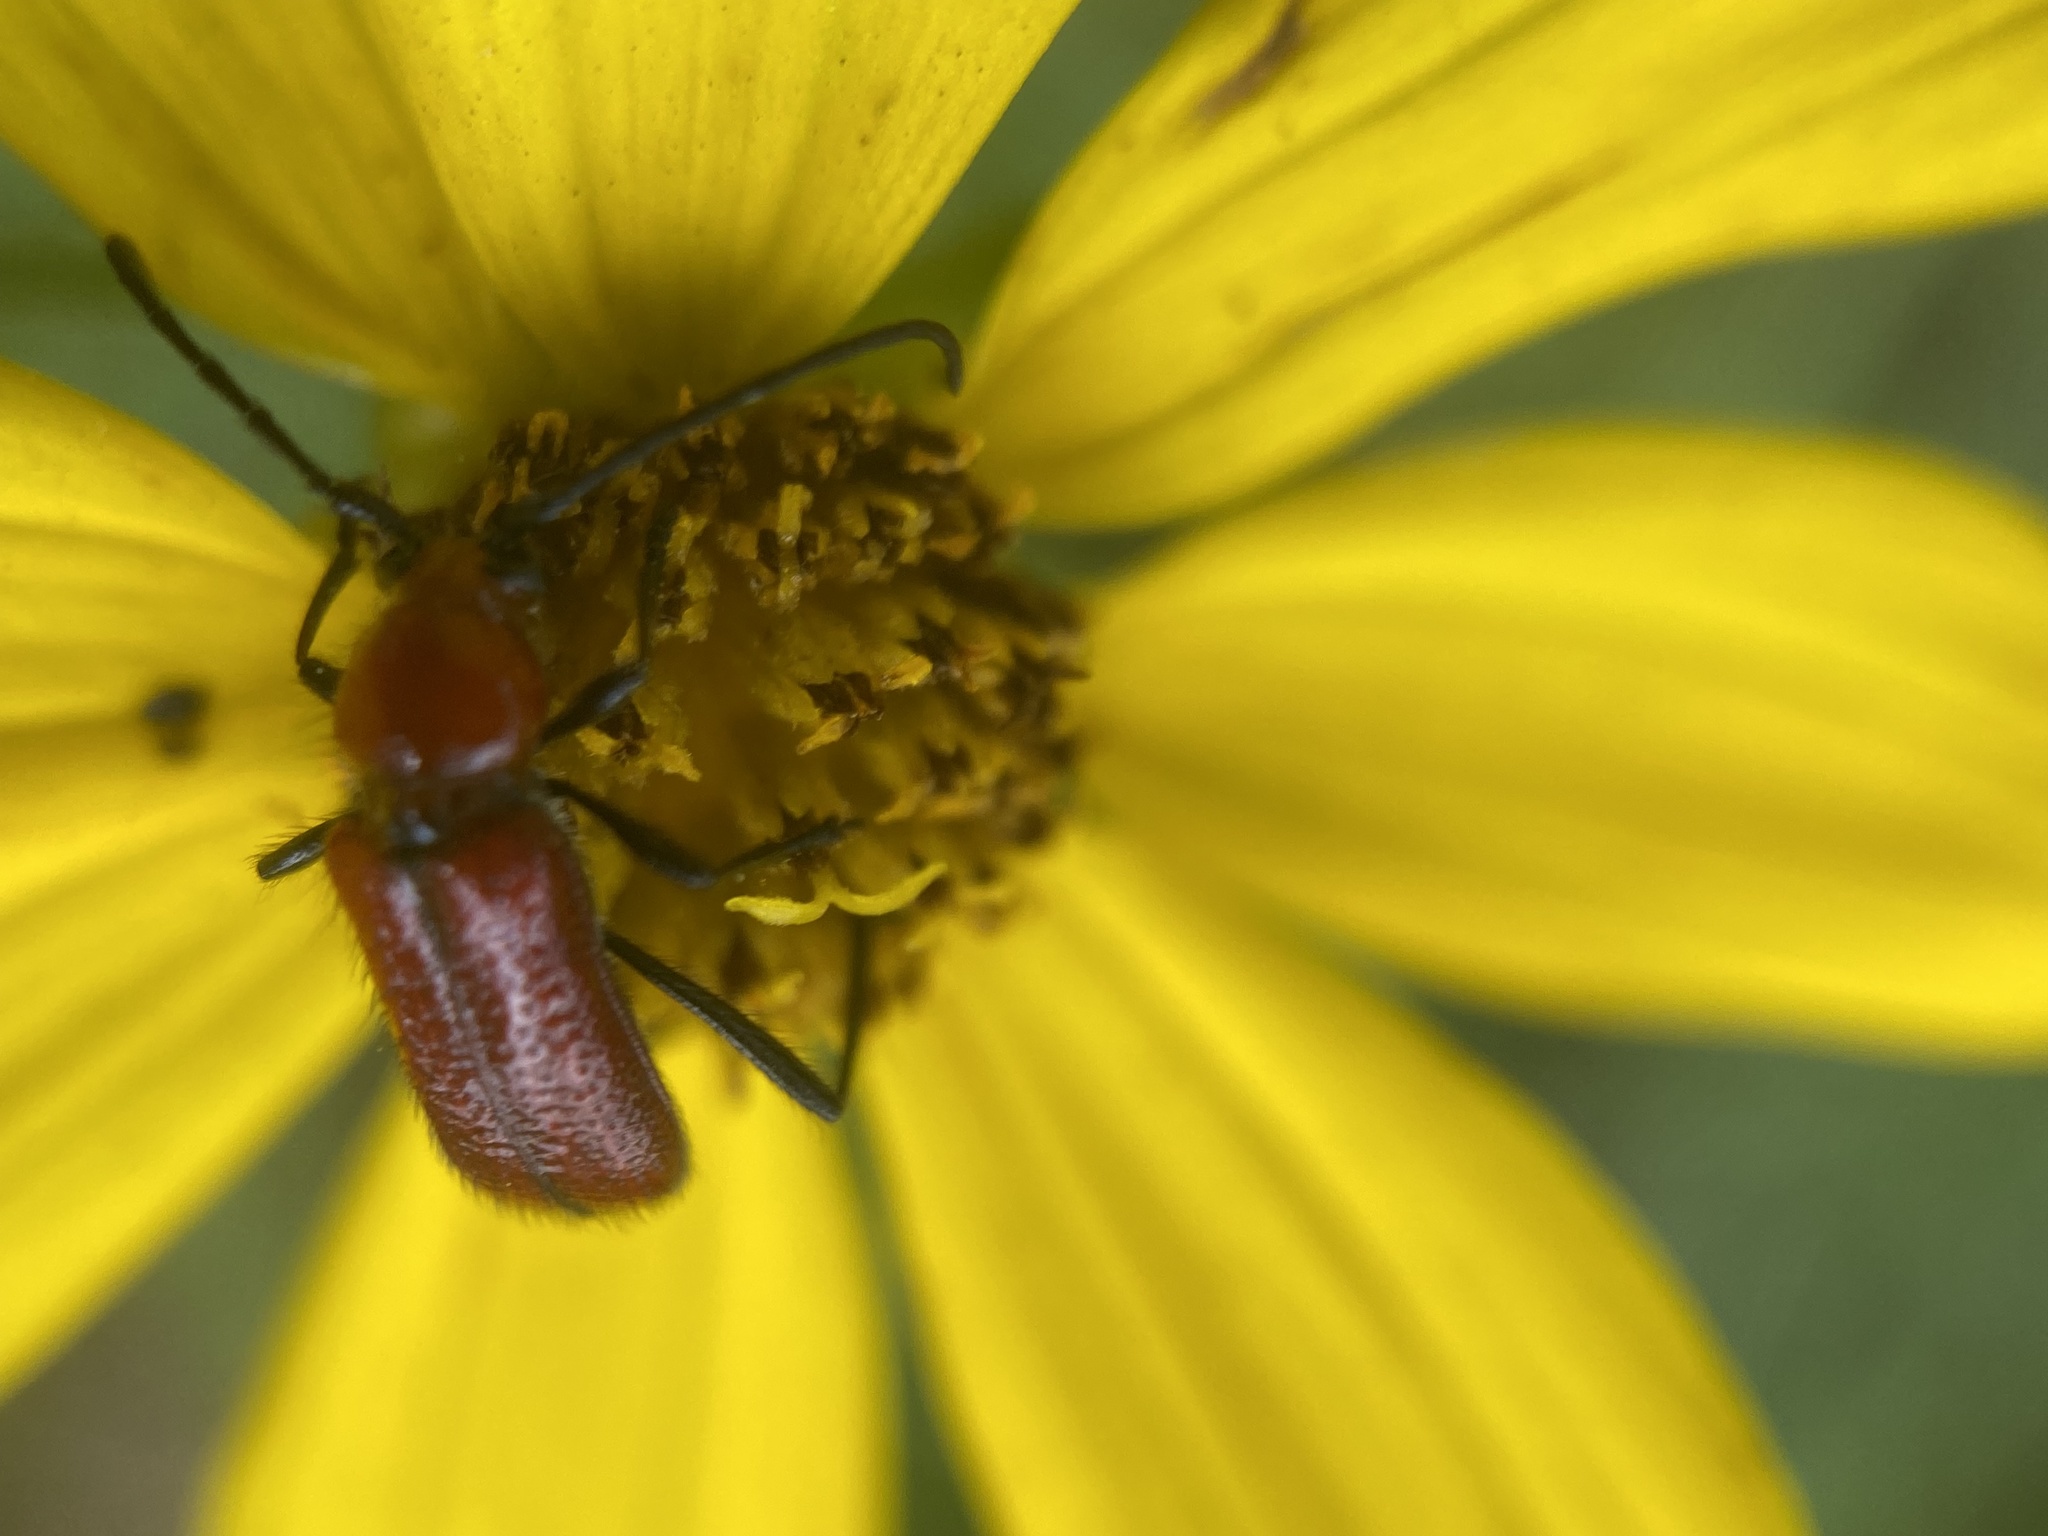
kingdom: Animalia
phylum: Arthropoda
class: Insecta
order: Coleoptera
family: Cerambycidae
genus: Batyle
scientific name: Batyle suturalis
